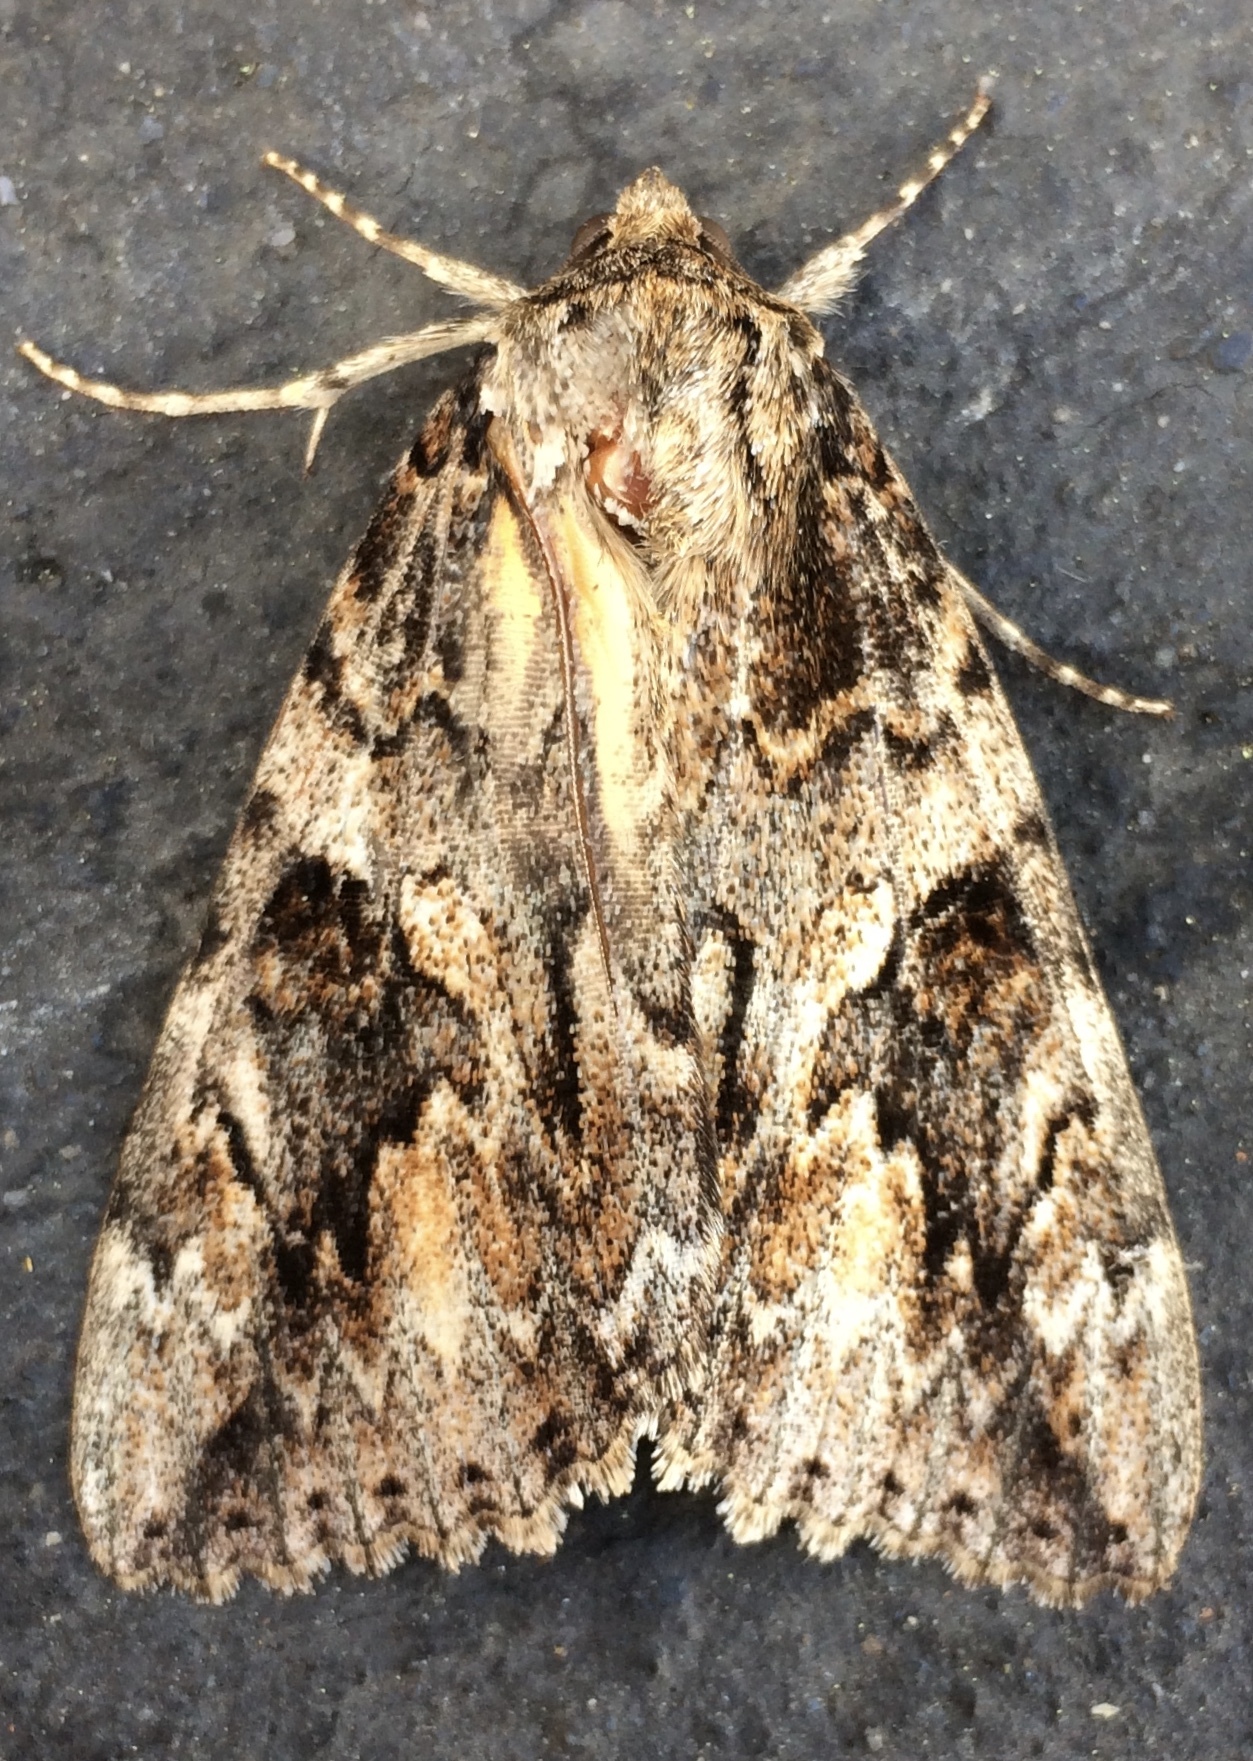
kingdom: Animalia
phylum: Arthropoda
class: Insecta
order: Lepidoptera
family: Erebidae
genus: Catocala
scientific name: Catocala irene
